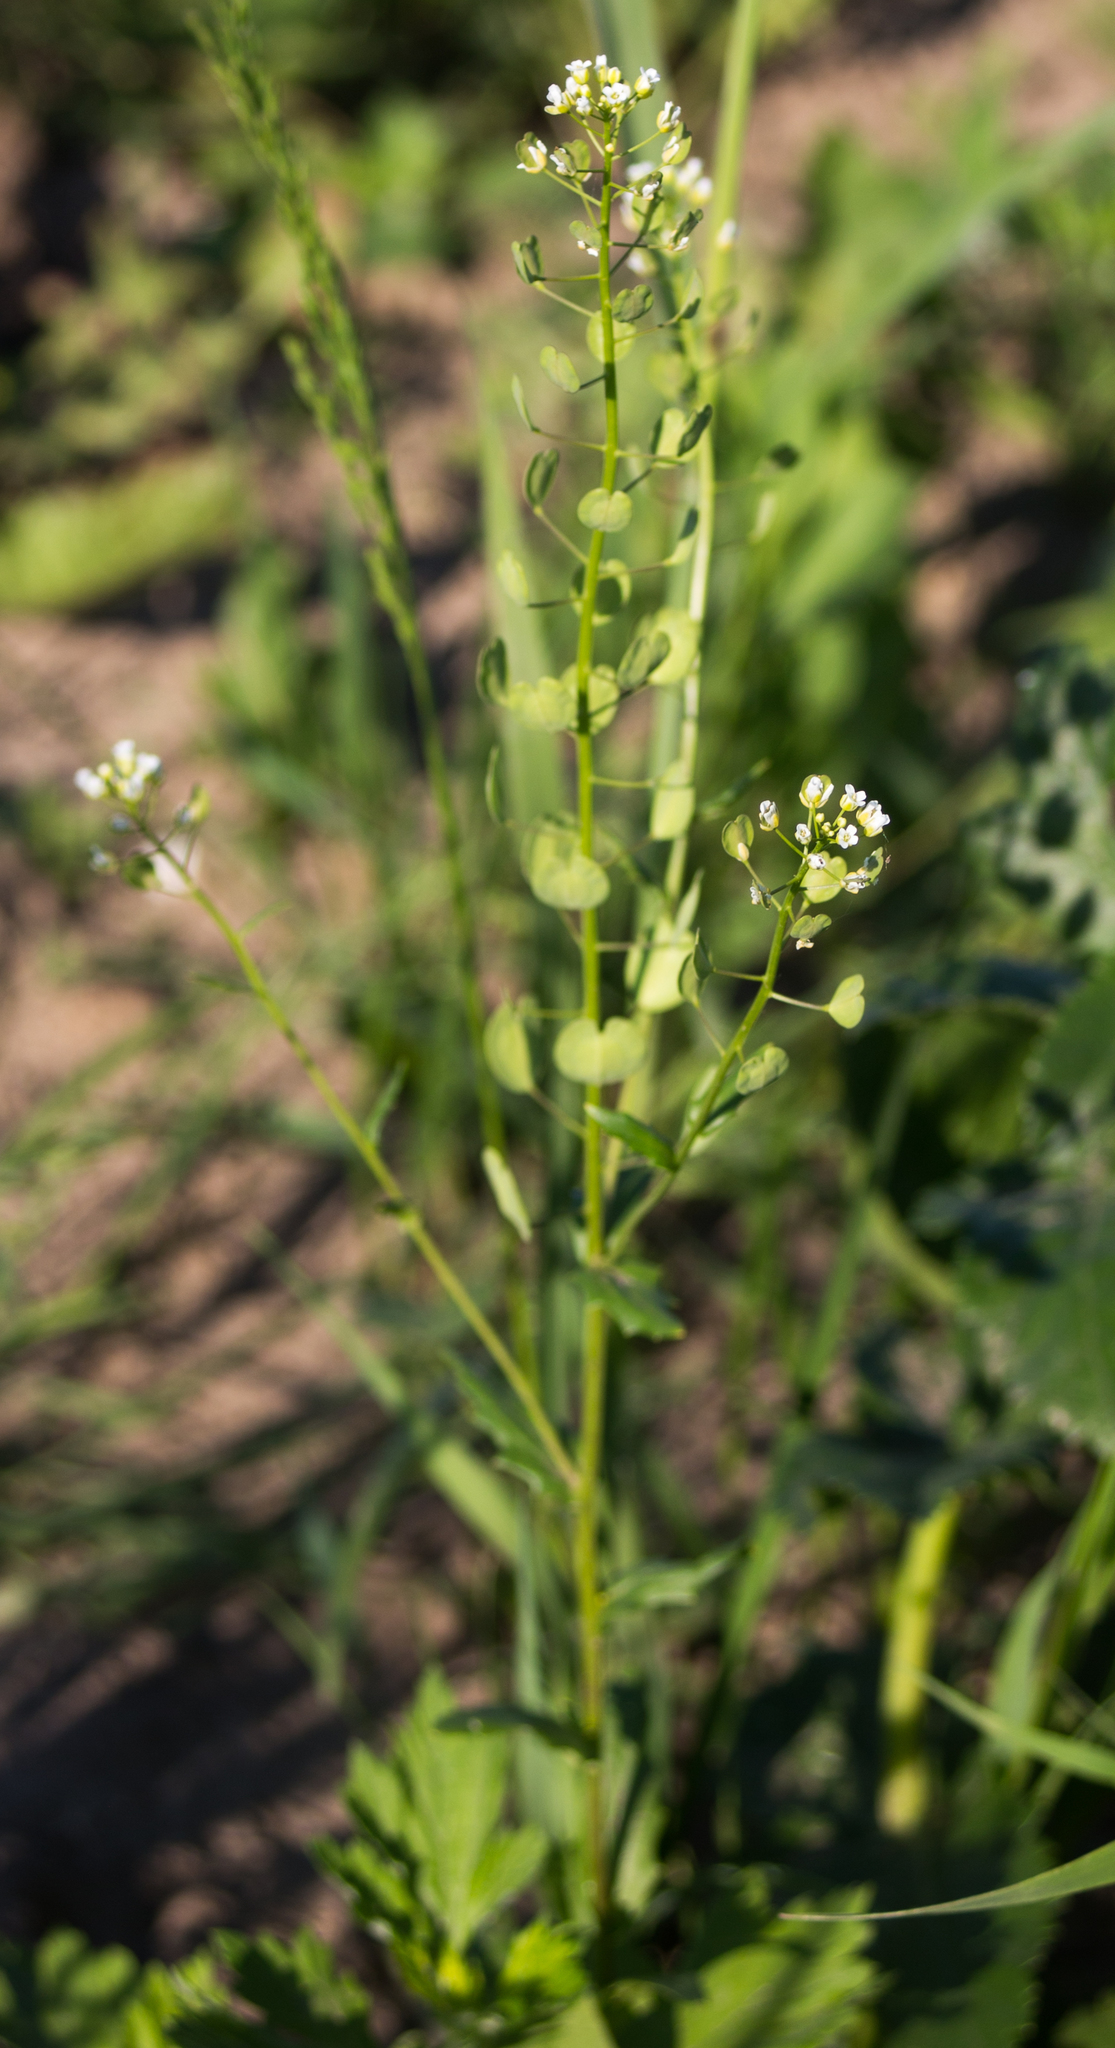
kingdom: Plantae
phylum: Tracheophyta
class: Magnoliopsida
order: Brassicales
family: Brassicaceae
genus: Thlaspi
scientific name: Thlaspi arvense
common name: Field pennycress
